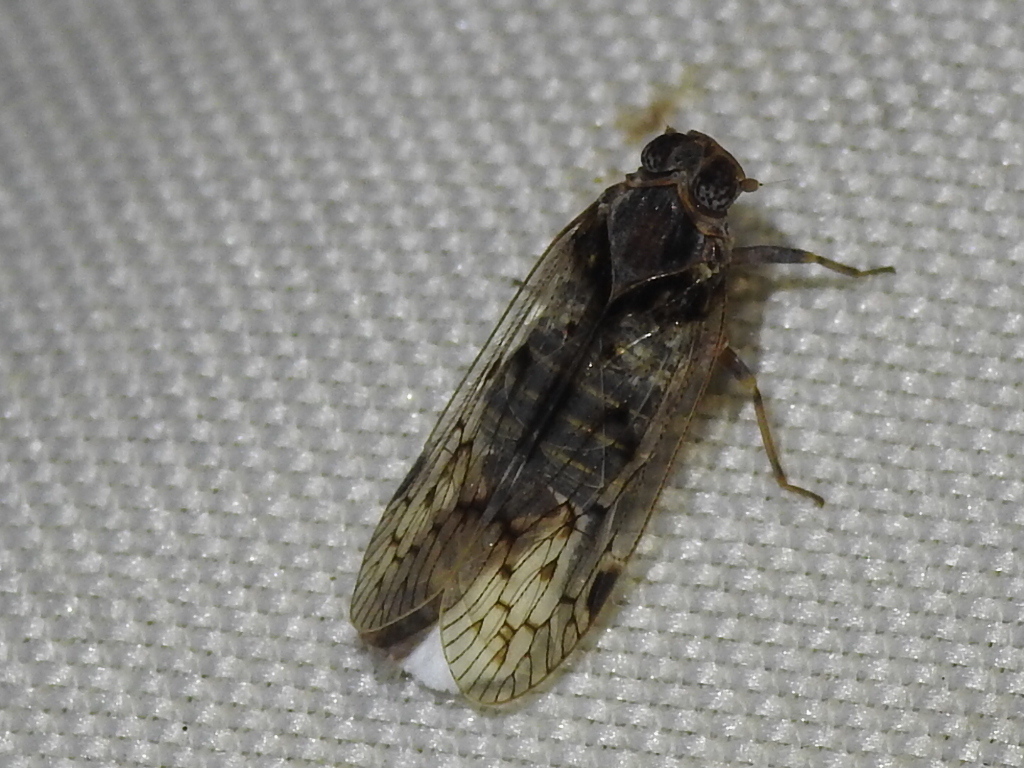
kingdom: Animalia
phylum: Arthropoda
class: Insecta
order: Hemiptera
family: Cixiidae
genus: Melanoliarus
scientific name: Melanoliarus aridus
